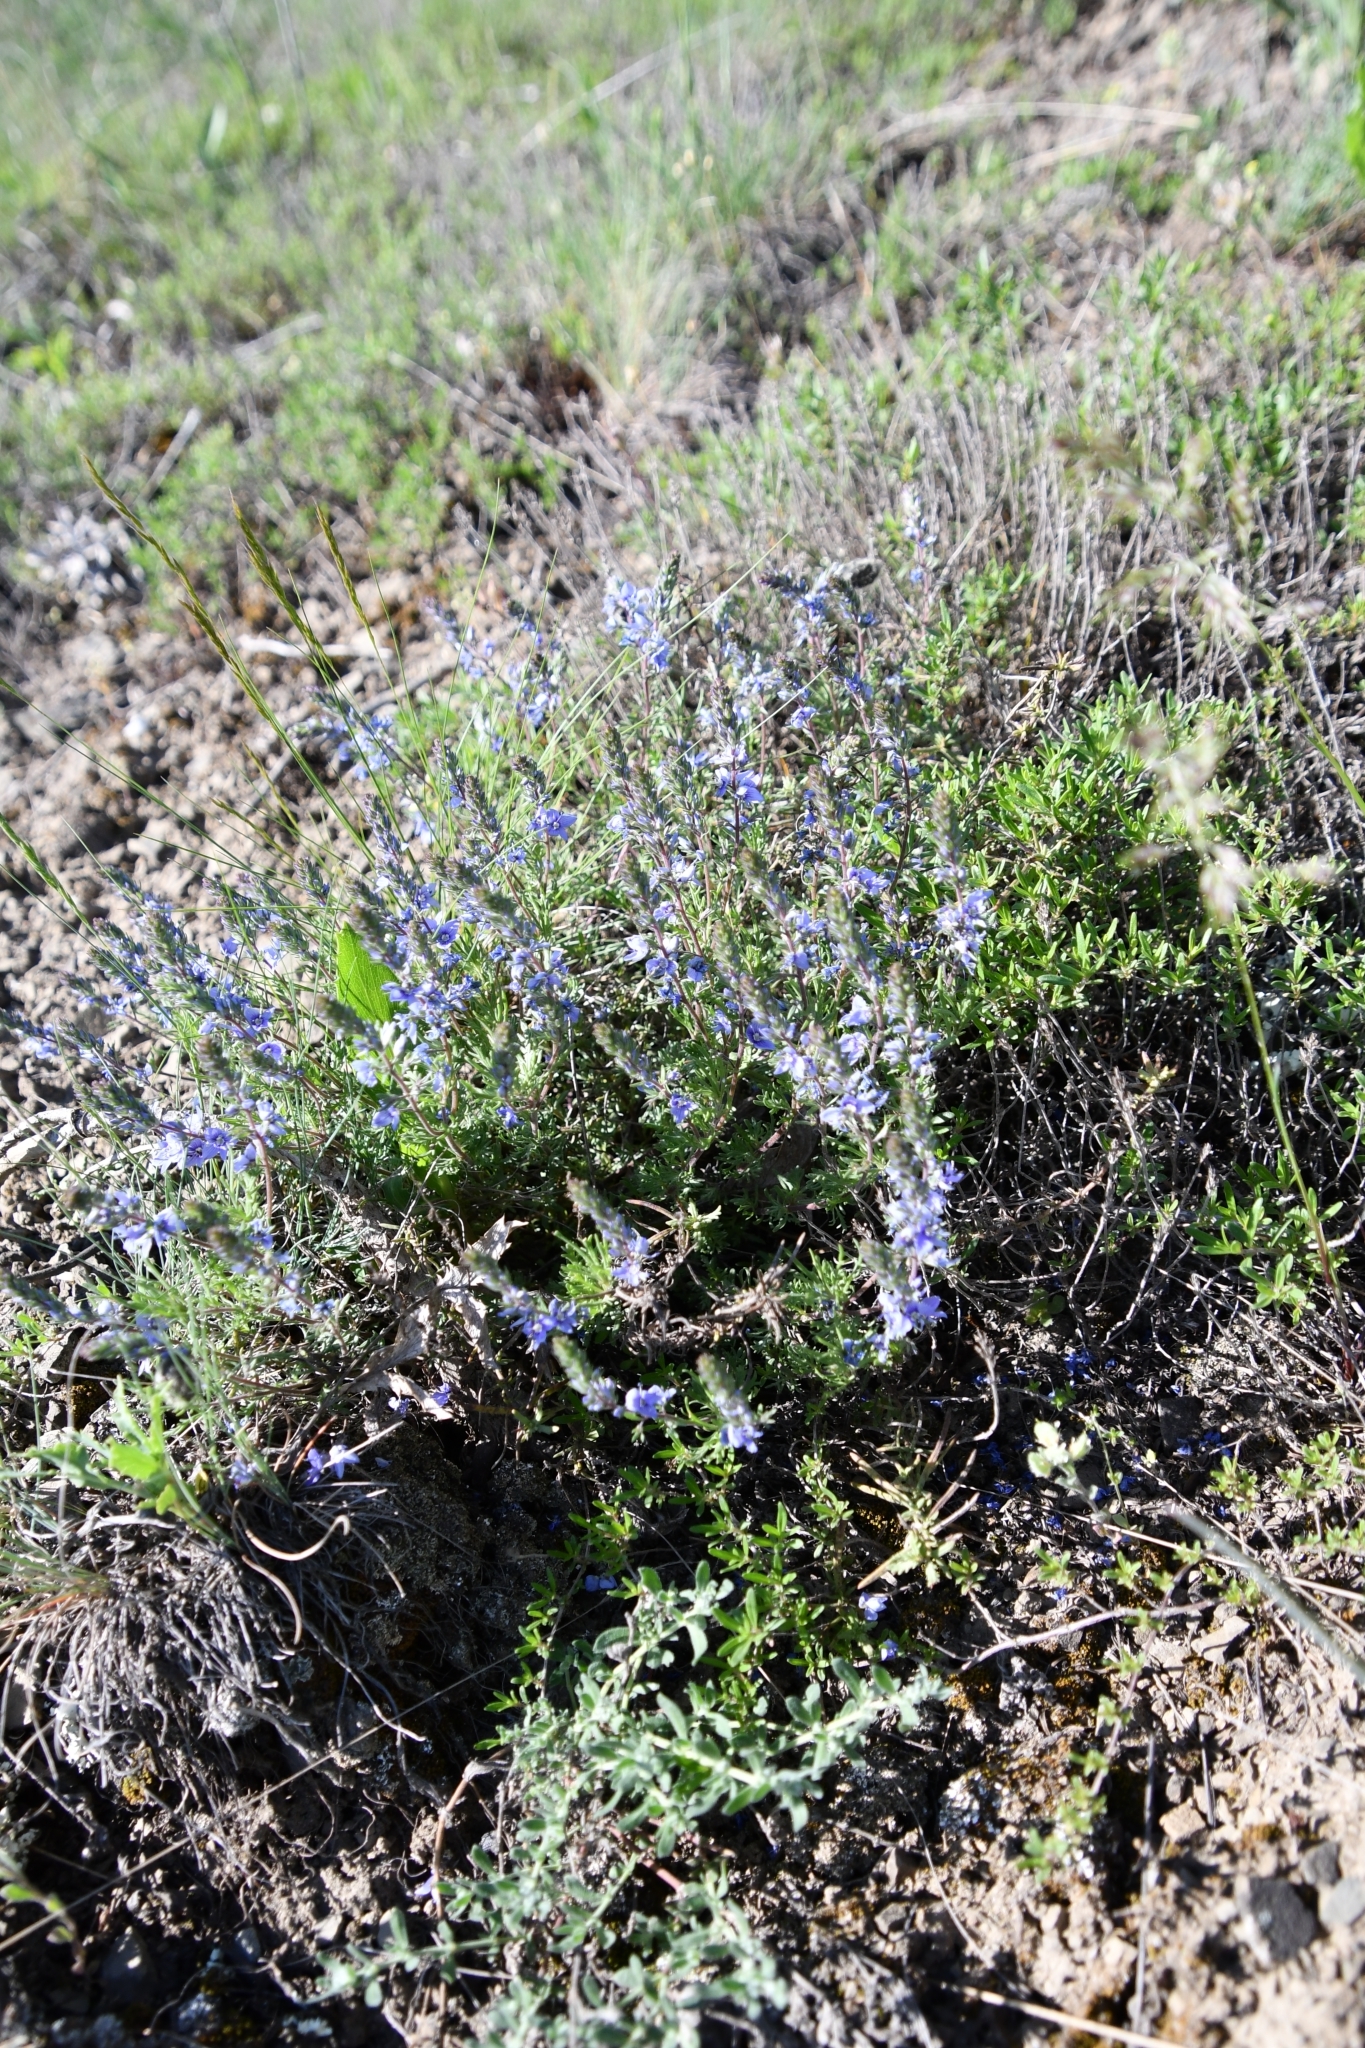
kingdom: Plantae
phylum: Tracheophyta
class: Magnoliopsida
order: Lamiales
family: Plantaginaceae
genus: Veronica
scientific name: Veronica multifida
